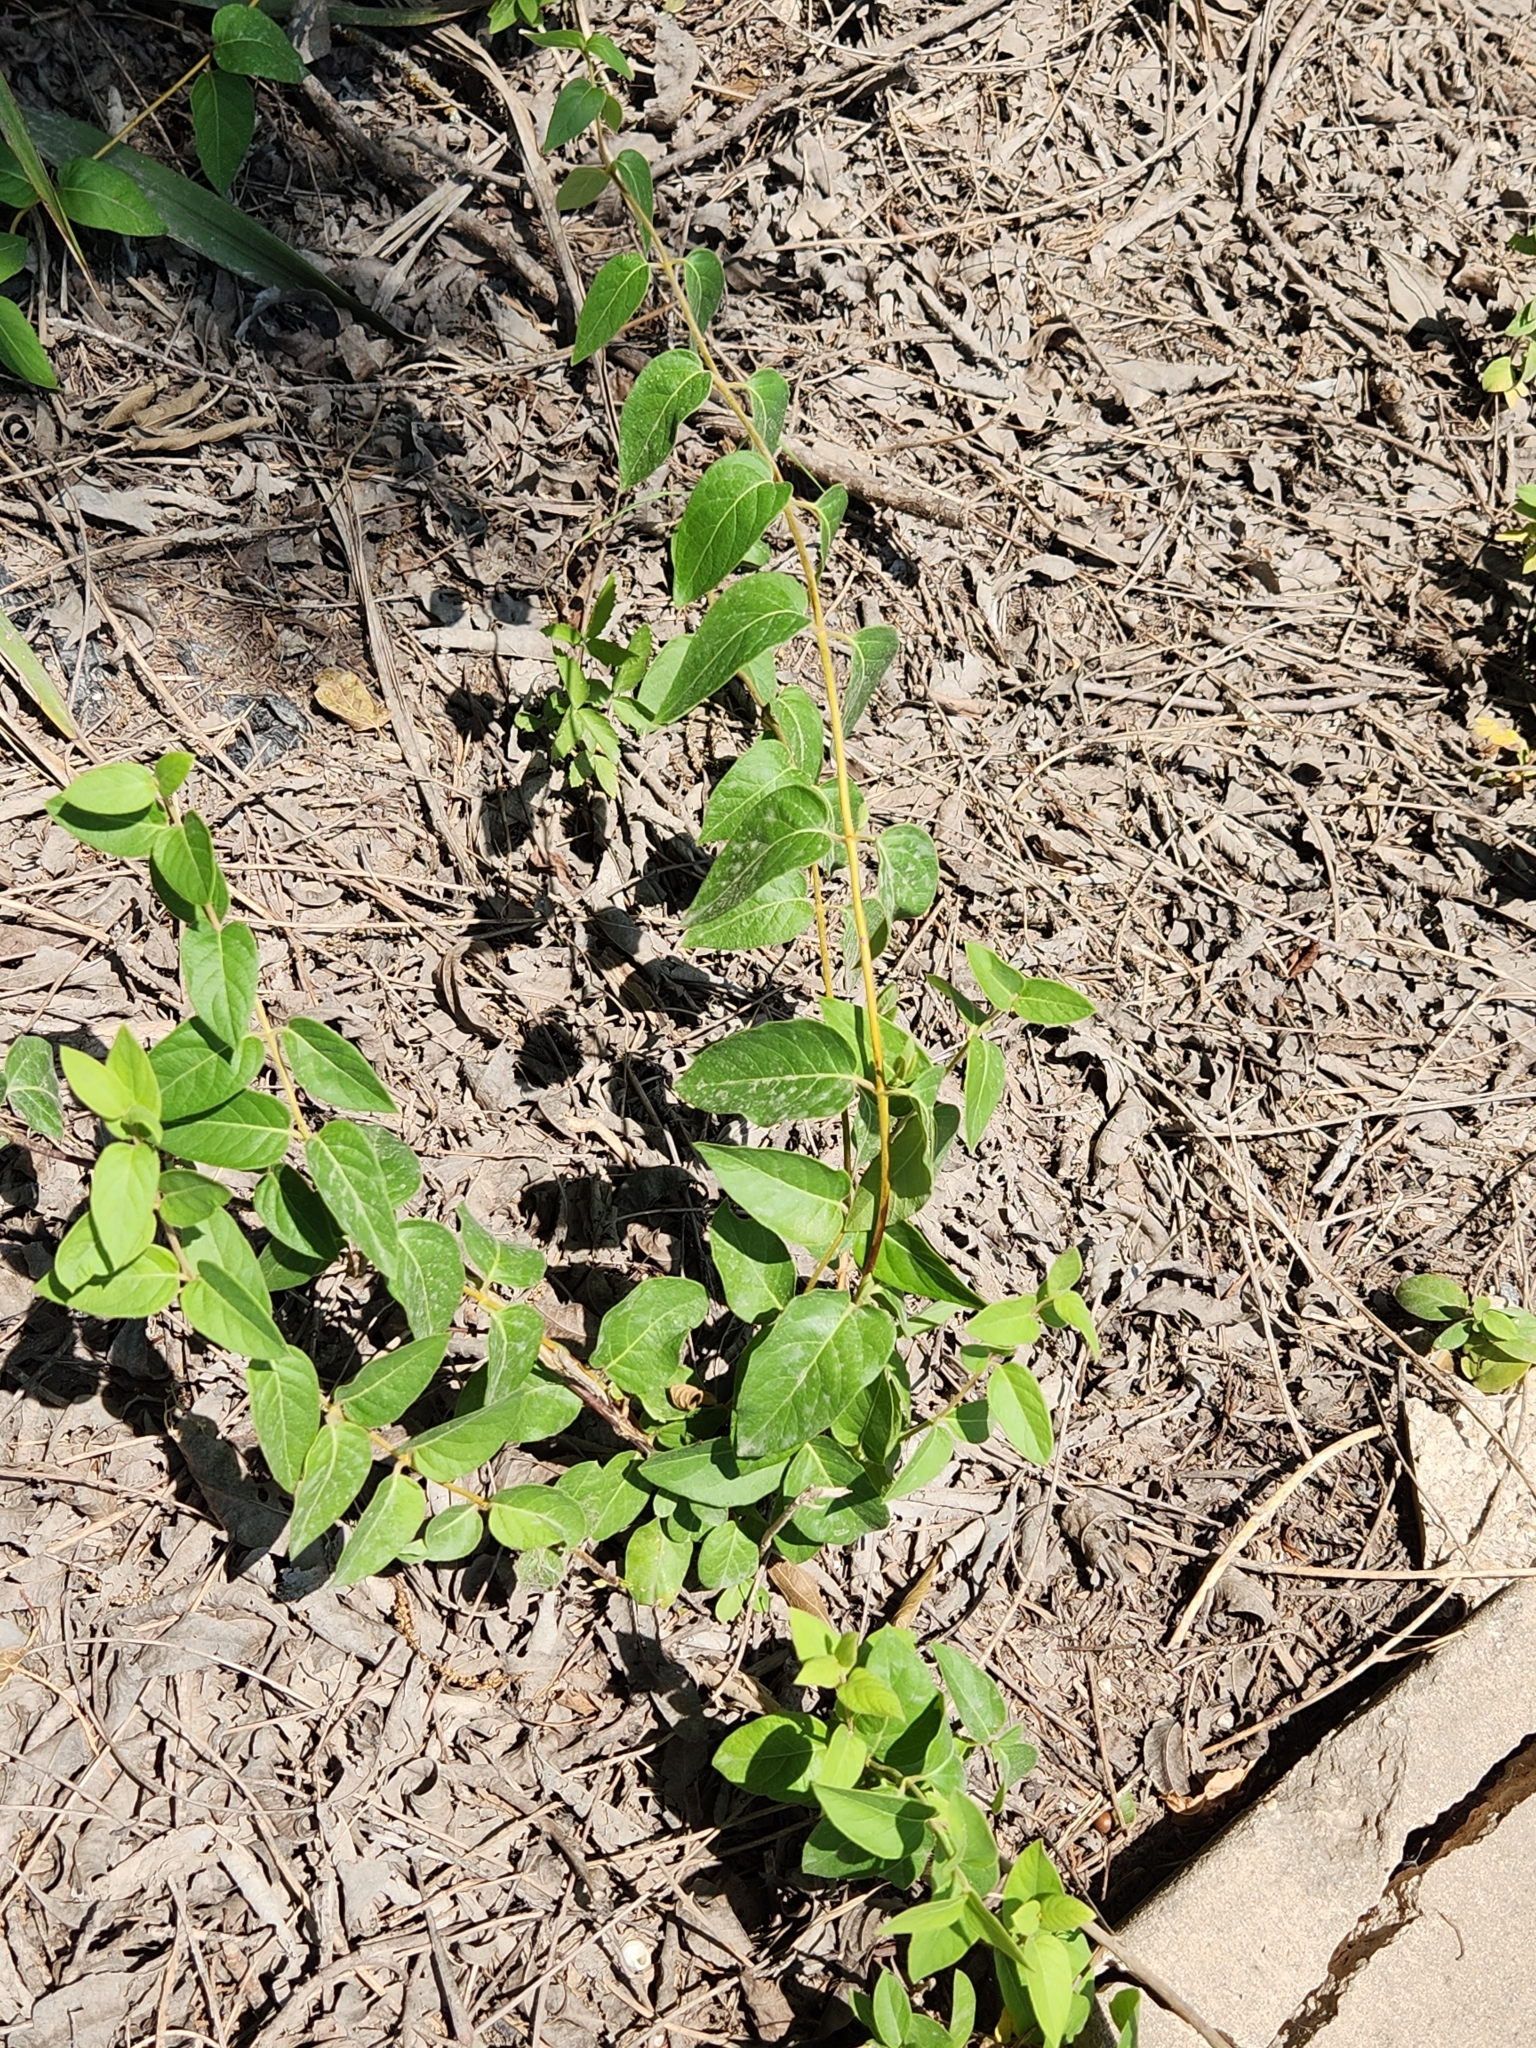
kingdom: Plantae
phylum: Tracheophyta
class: Magnoliopsida
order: Dipsacales
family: Caprifoliaceae
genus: Lonicera
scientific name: Lonicera japonica
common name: Japanese honeysuckle
